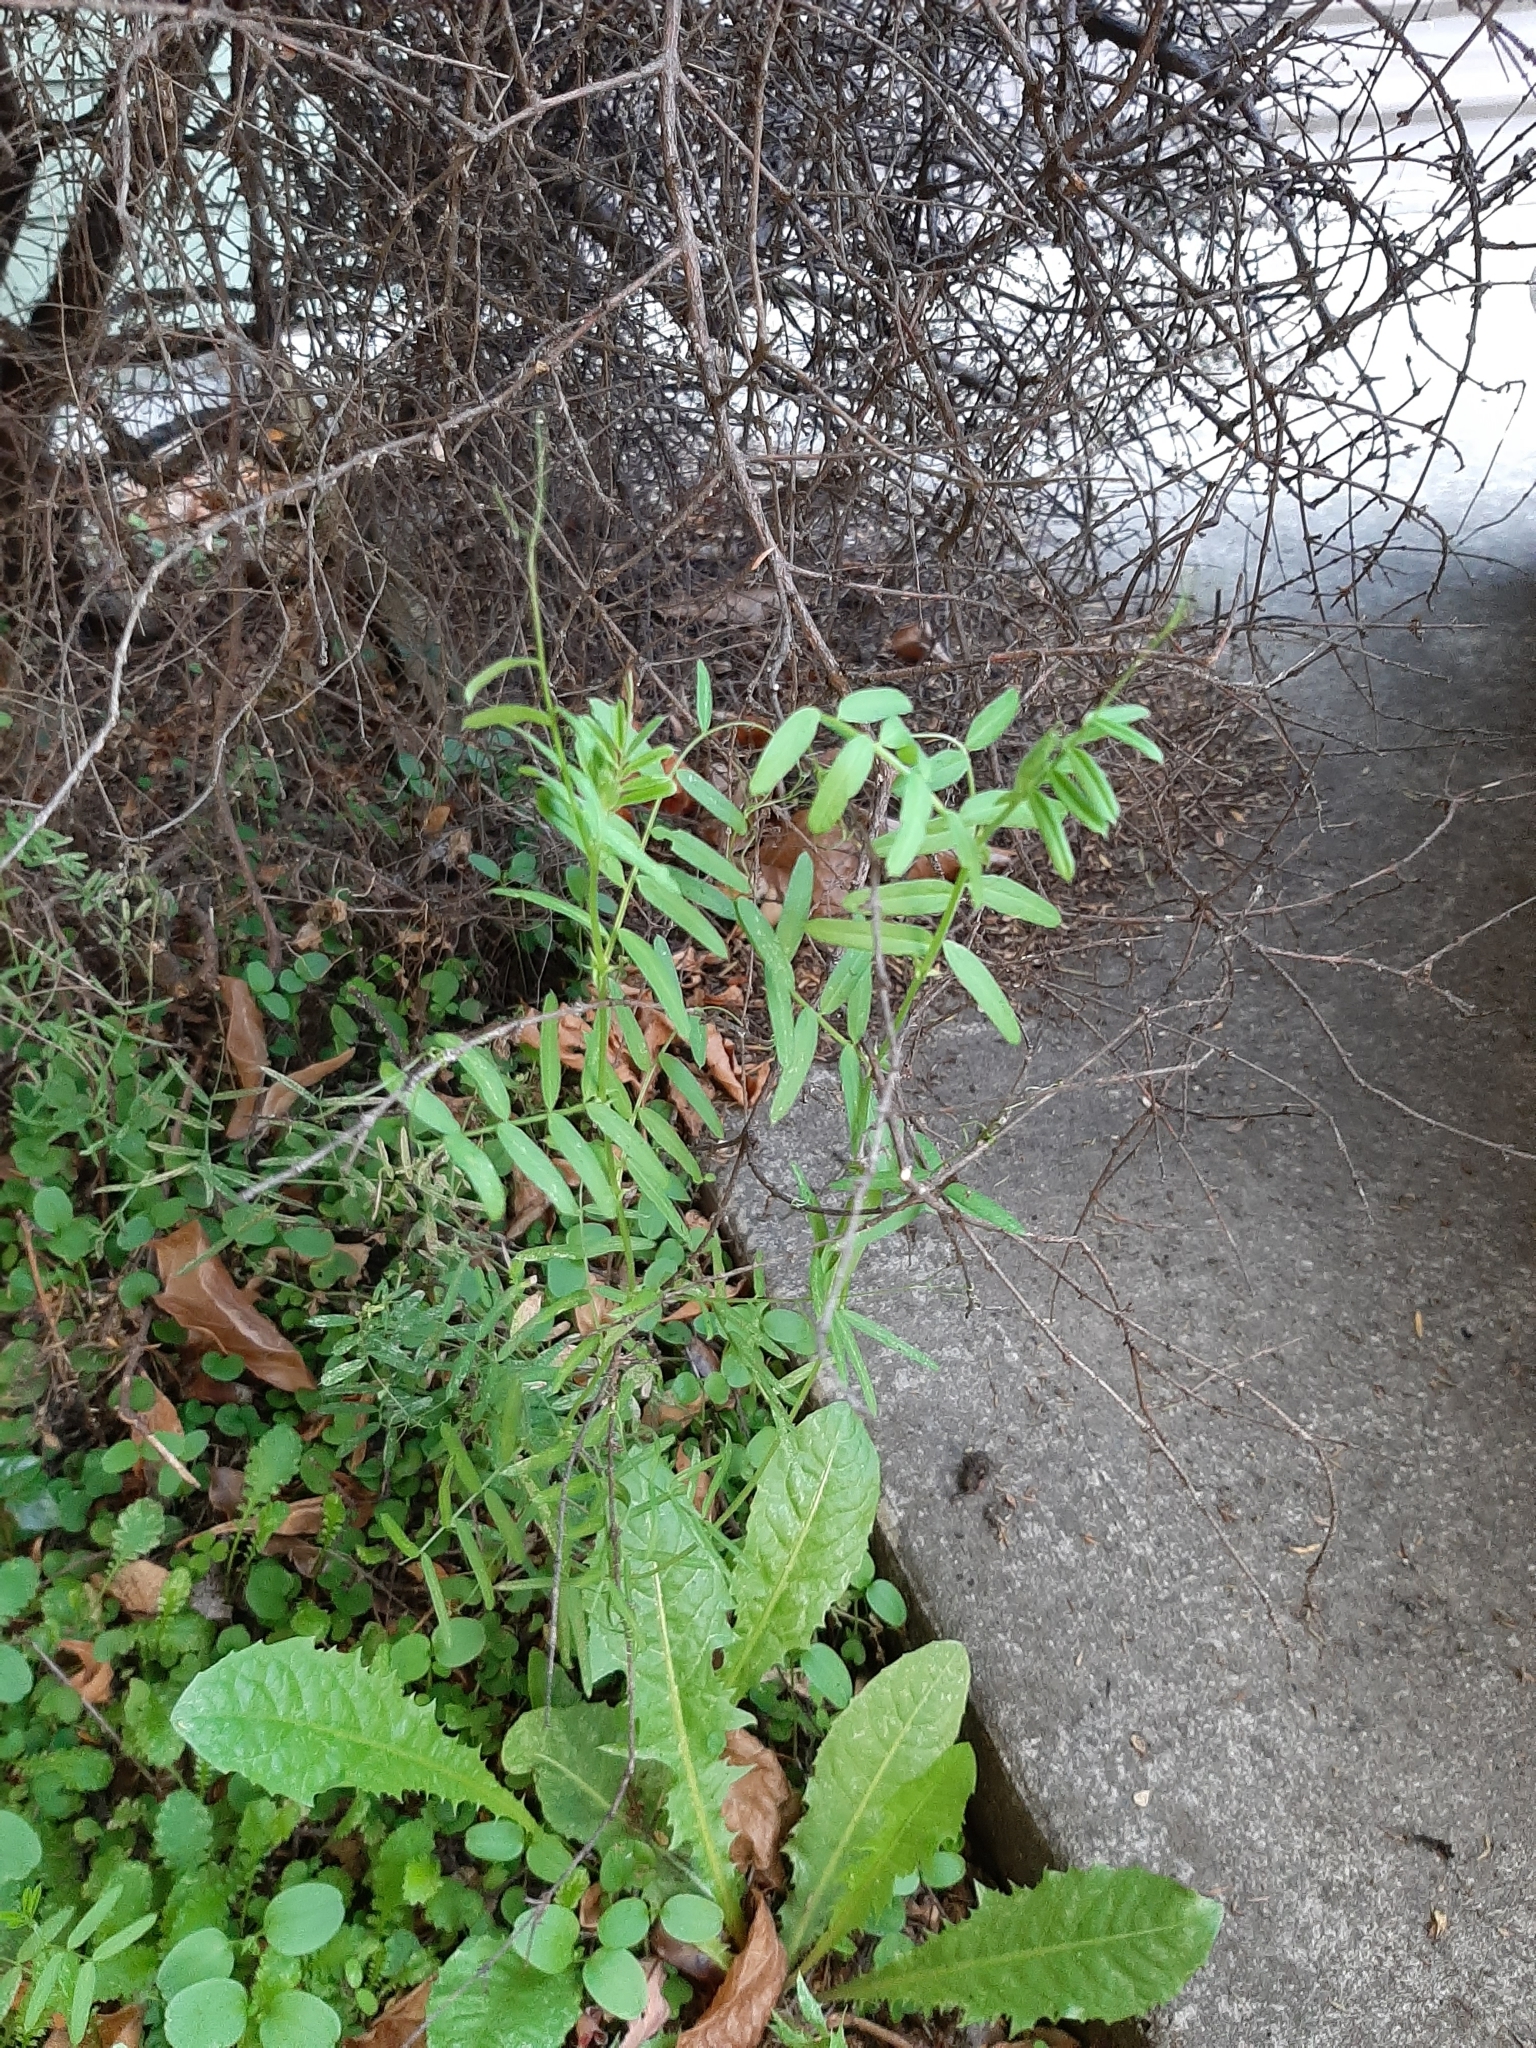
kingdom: Plantae
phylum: Tracheophyta
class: Magnoliopsida
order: Fabales
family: Fabaceae
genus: Vicia
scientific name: Vicia sativa
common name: Garden vetch
